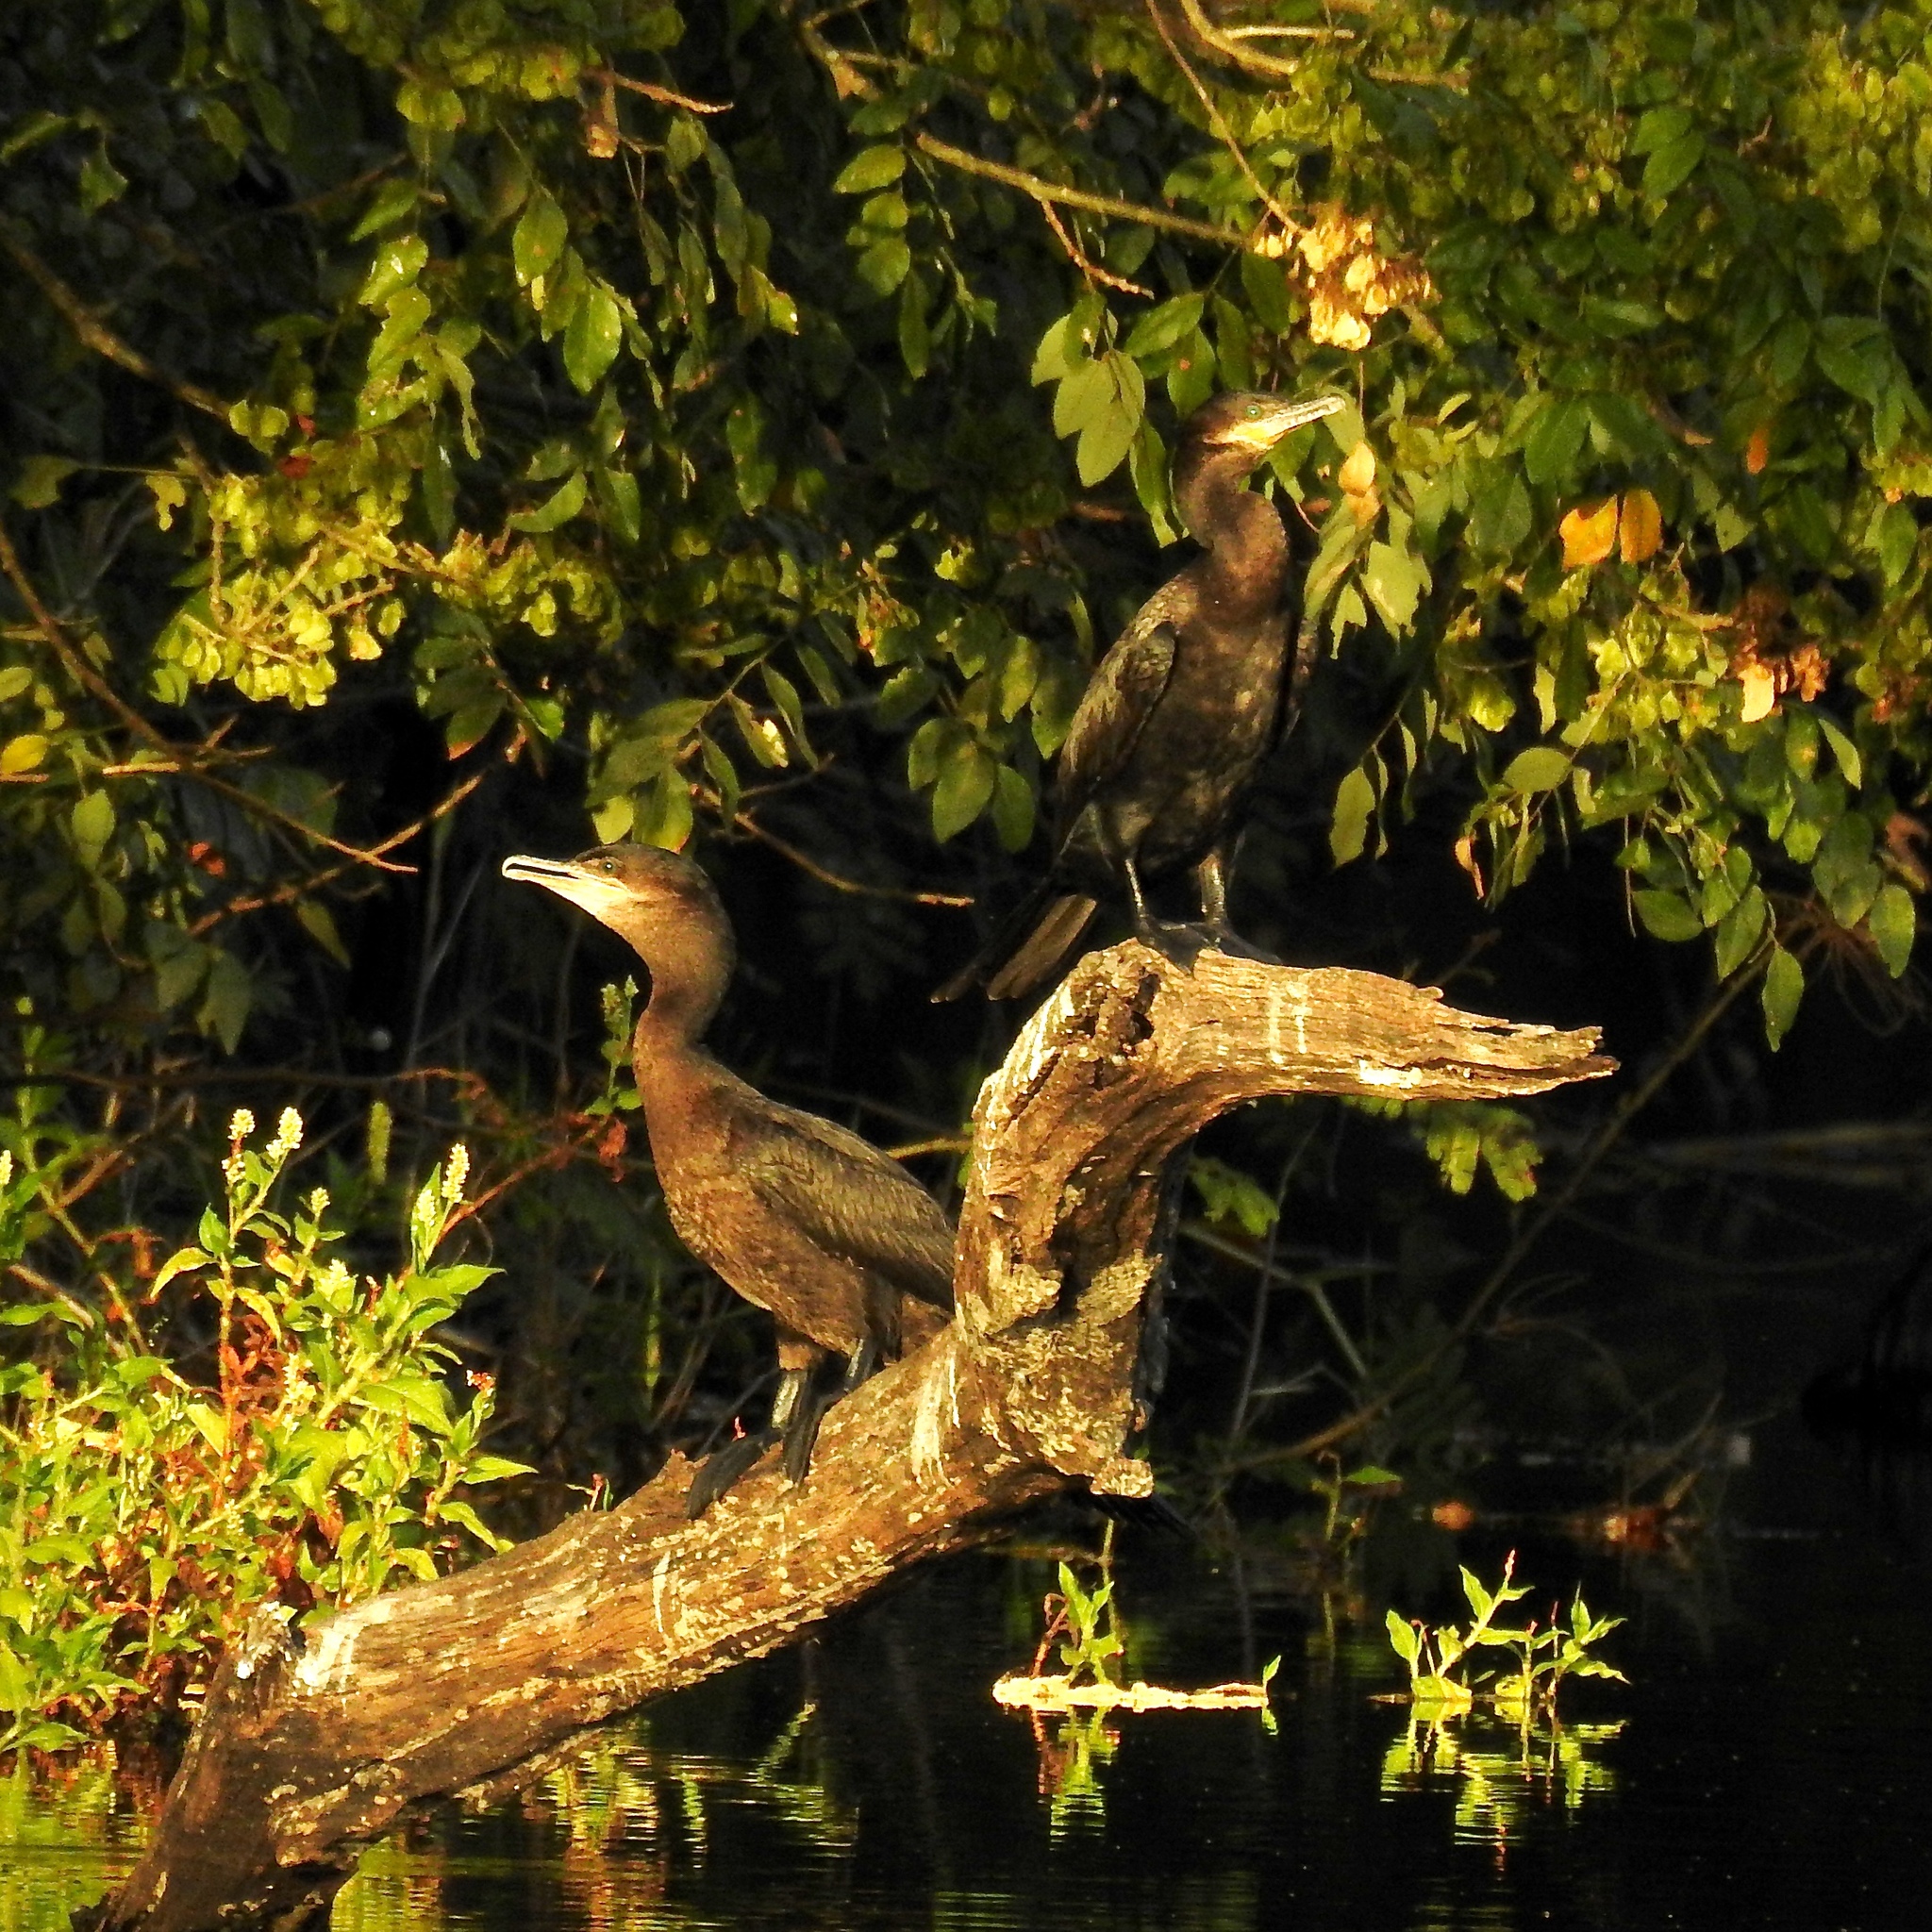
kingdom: Animalia
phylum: Chordata
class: Aves
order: Suliformes
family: Phalacrocoracidae
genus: Phalacrocorax
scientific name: Phalacrocorax brasilianus
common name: Neotropic cormorant
